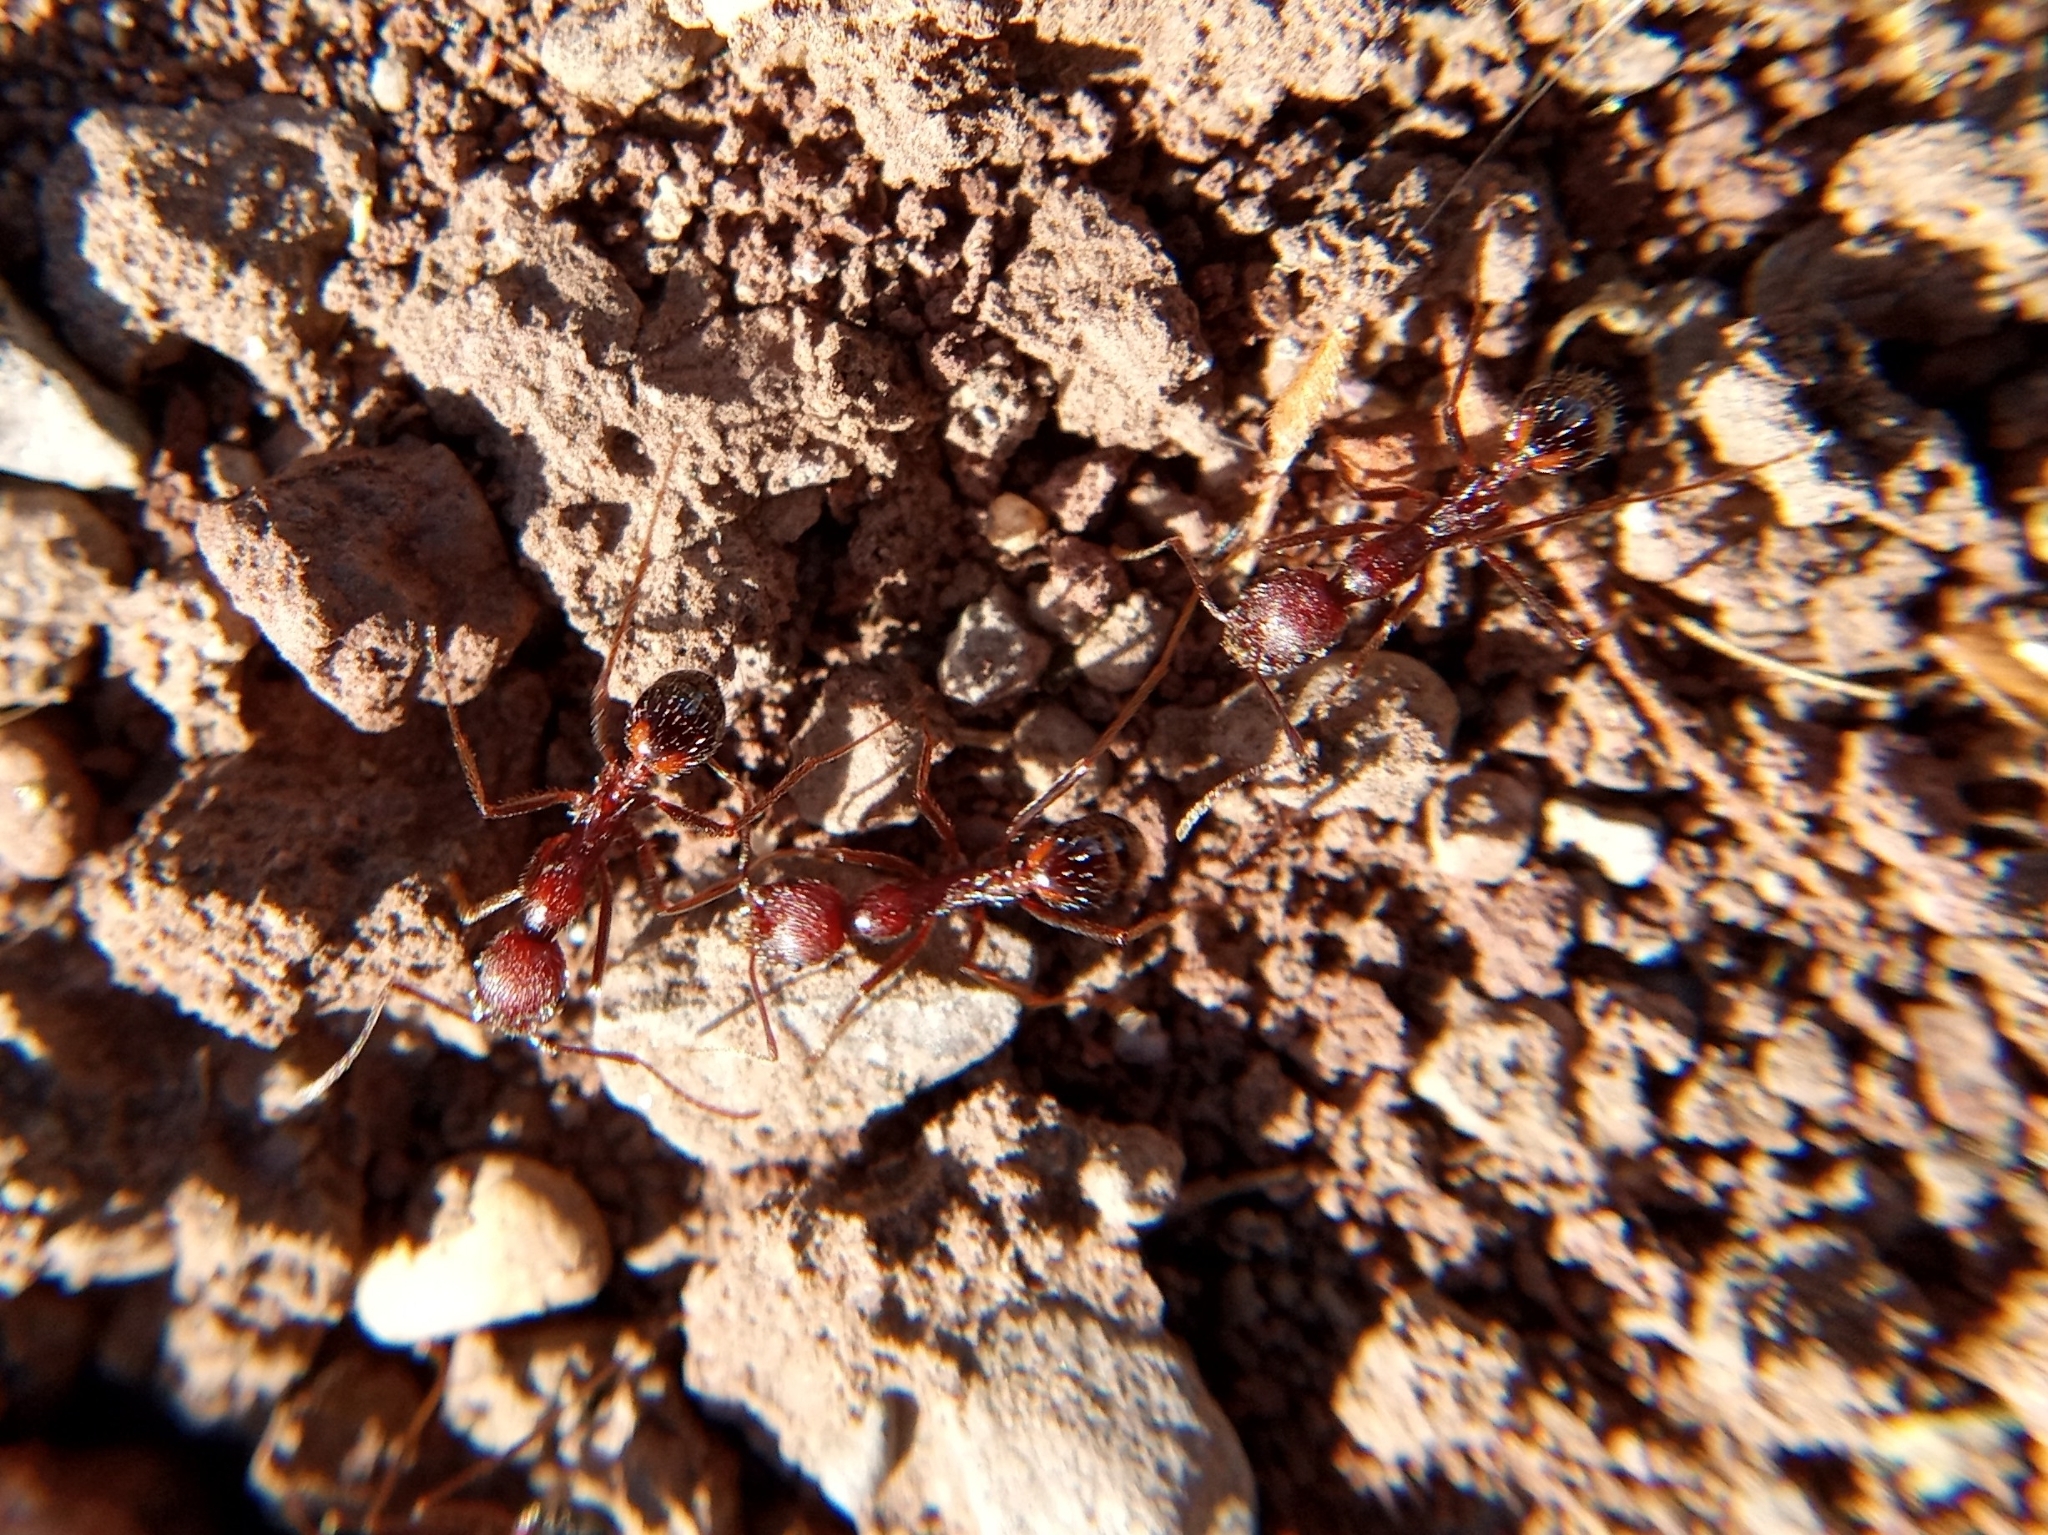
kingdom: Animalia
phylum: Arthropoda
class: Insecta
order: Hymenoptera
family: Formicidae
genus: Novomessor
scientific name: Novomessor albisetosa
